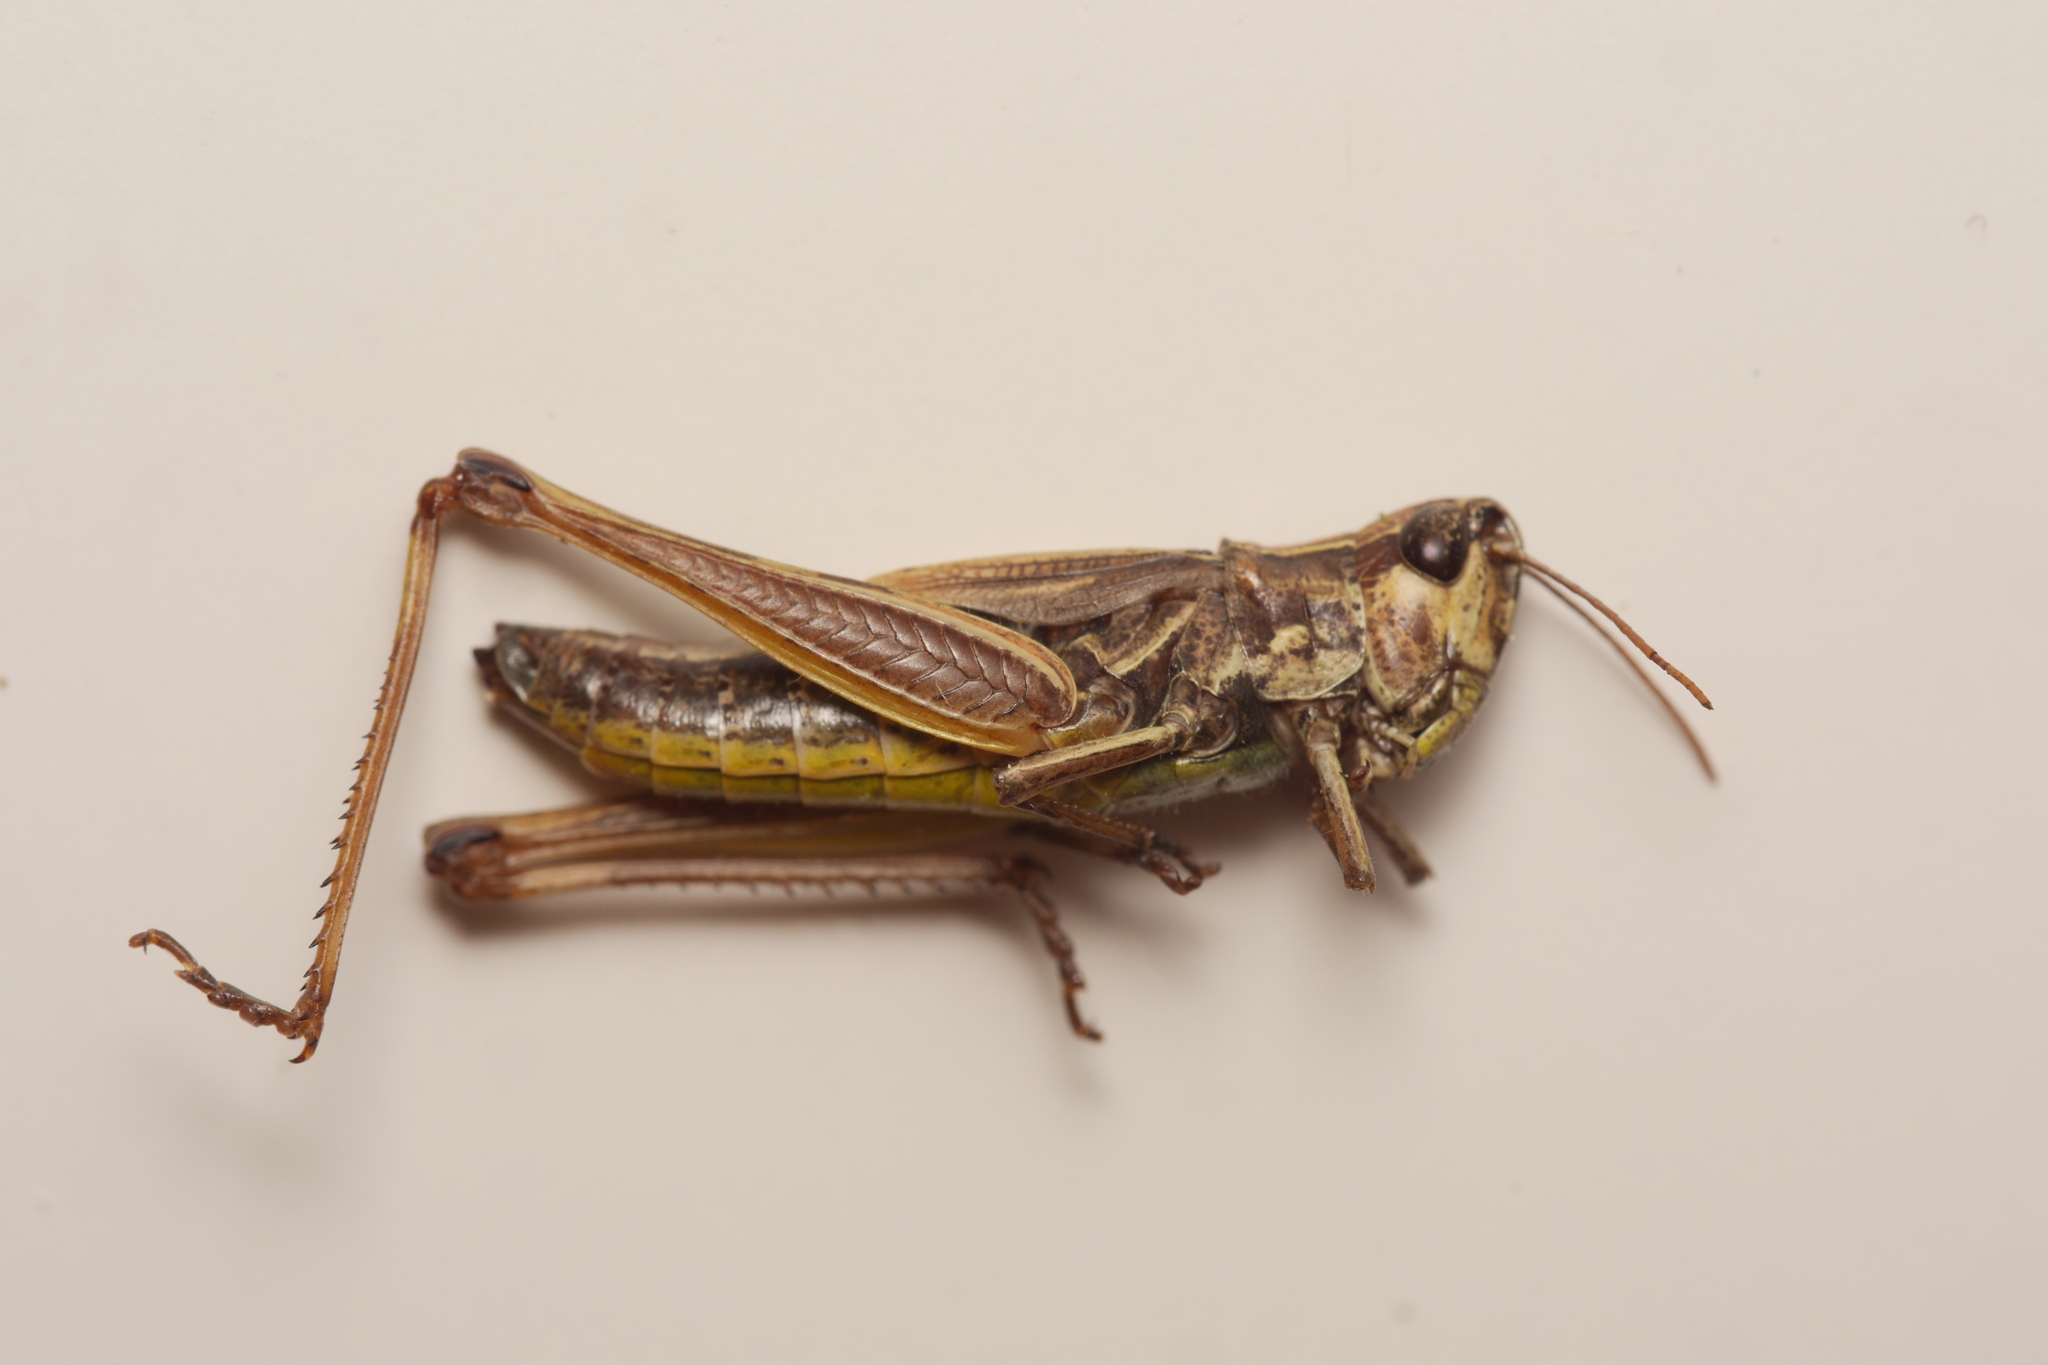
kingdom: Animalia
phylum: Arthropoda
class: Insecta
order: Orthoptera
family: Acrididae
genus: Pseudochorthippus
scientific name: Pseudochorthippus parallelus
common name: Meadow grasshopper
